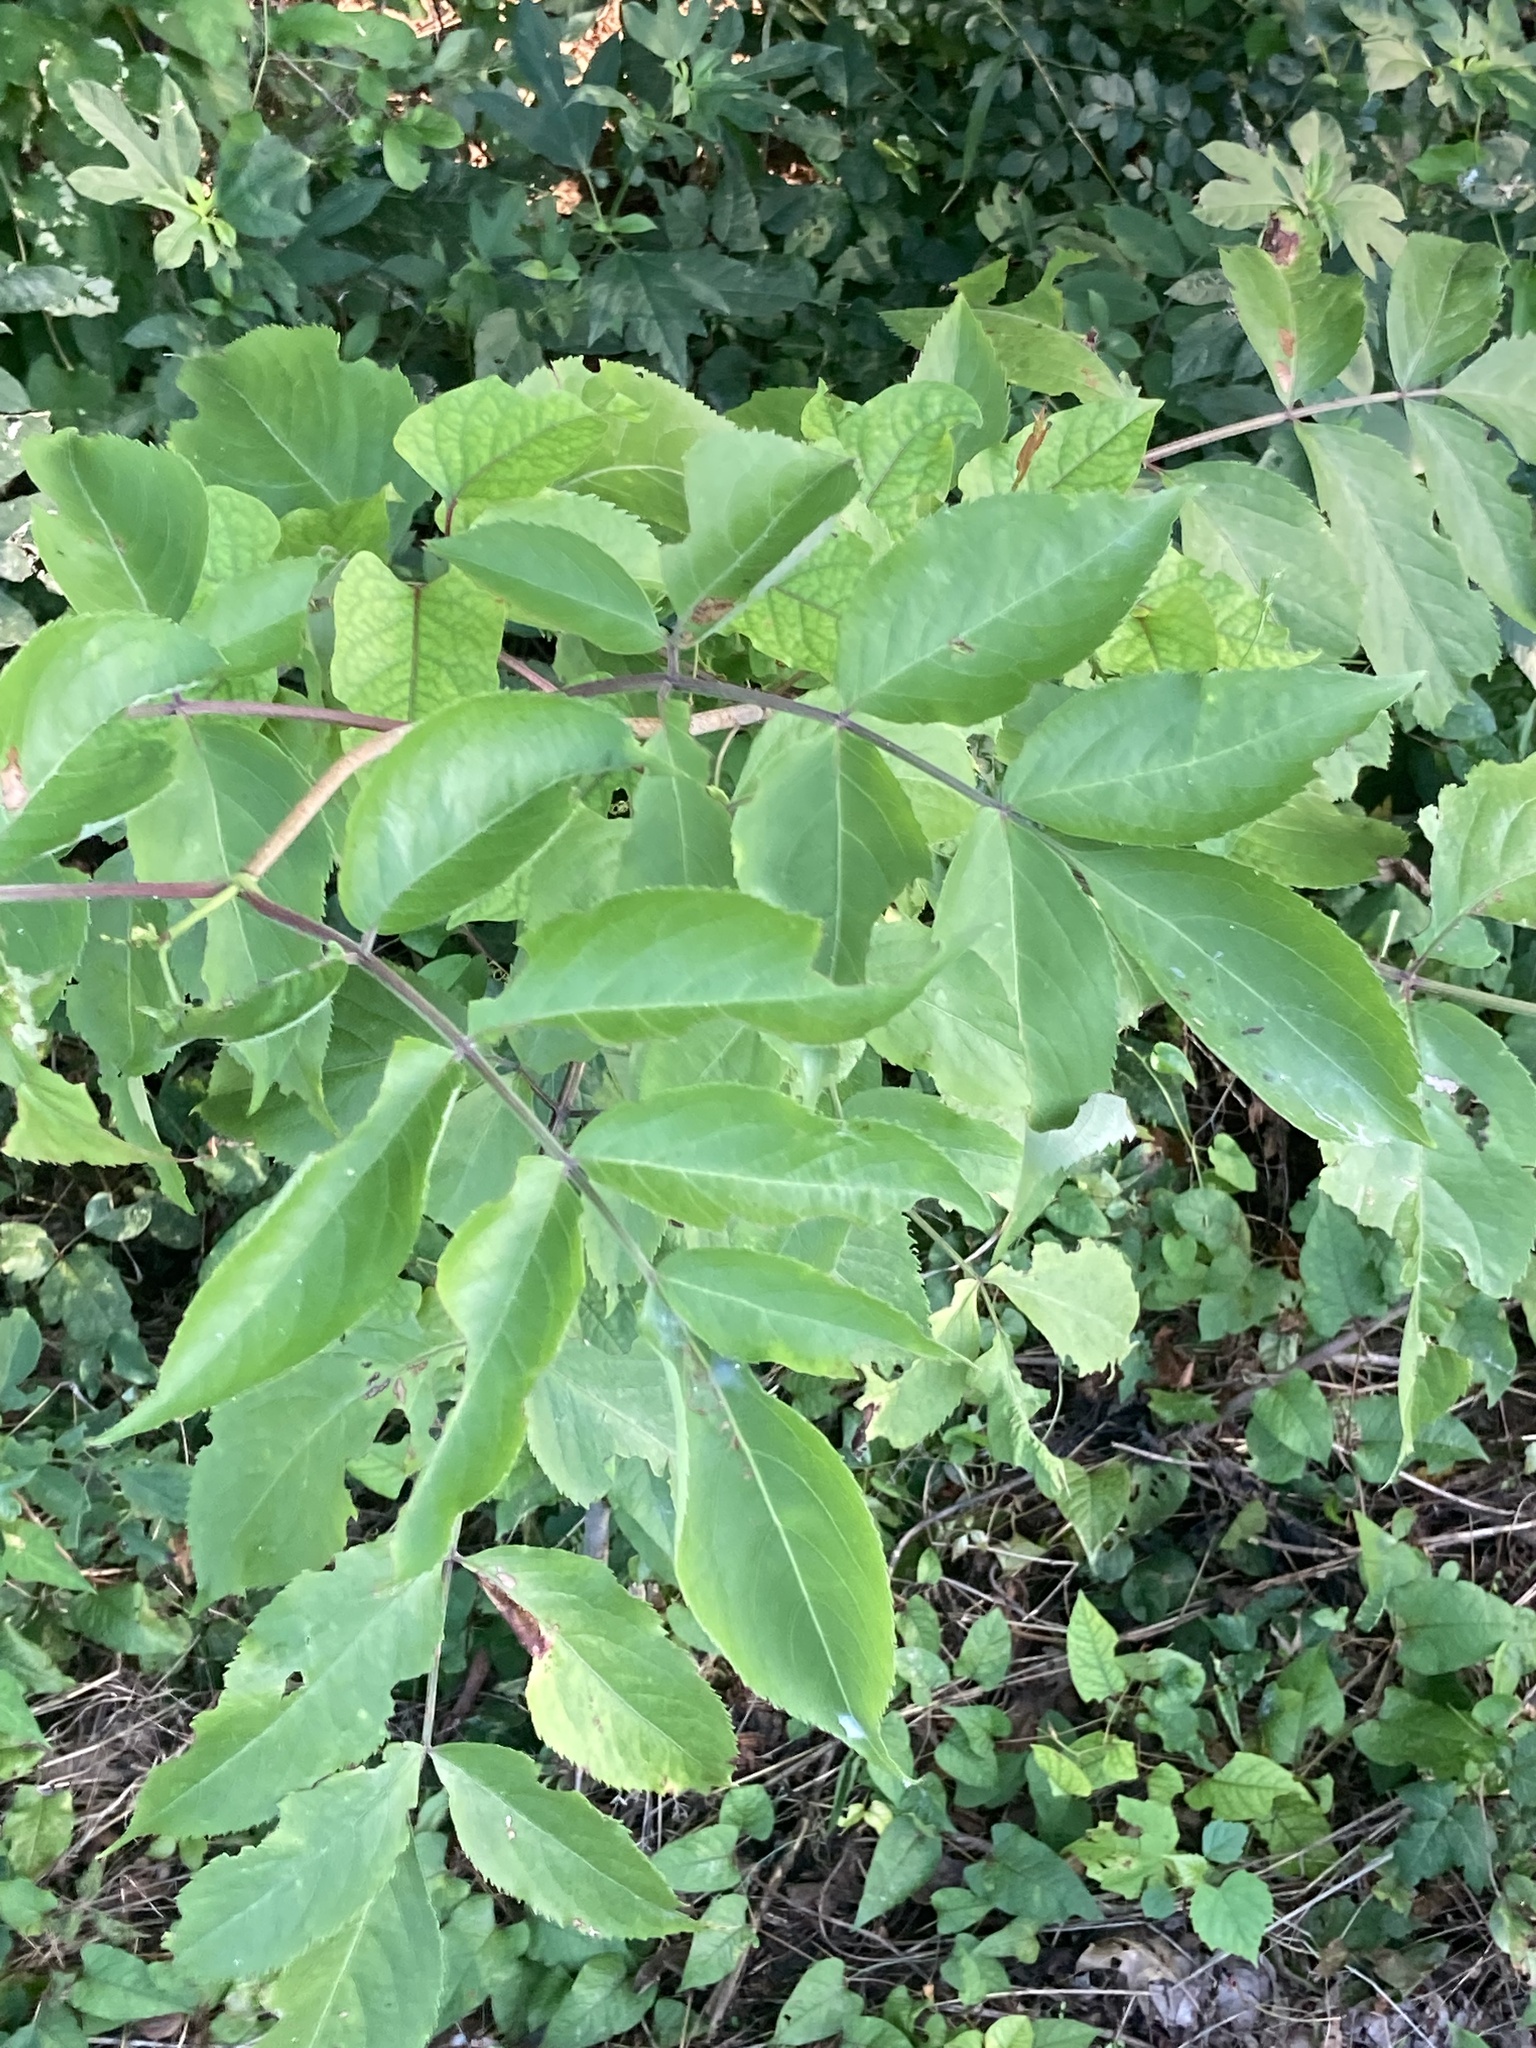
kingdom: Plantae
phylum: Tracheophyta
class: Magnoliopsida
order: Dipsacales
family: Viburnaceae
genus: Sambucus
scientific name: Sambucus canadensis
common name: American elder
